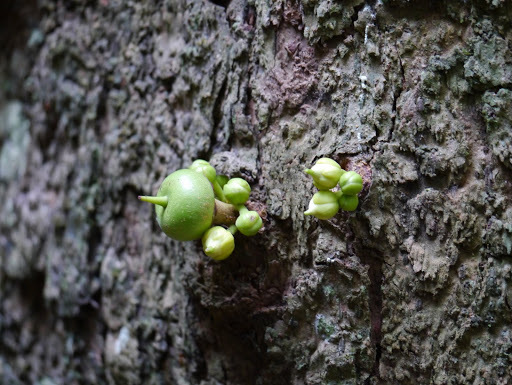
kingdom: Plantae
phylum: Tracheophyta
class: Magnoliopsida
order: Ericales
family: Sapotaceae
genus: Omphalocarpum
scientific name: Omphalocarpum ahia
